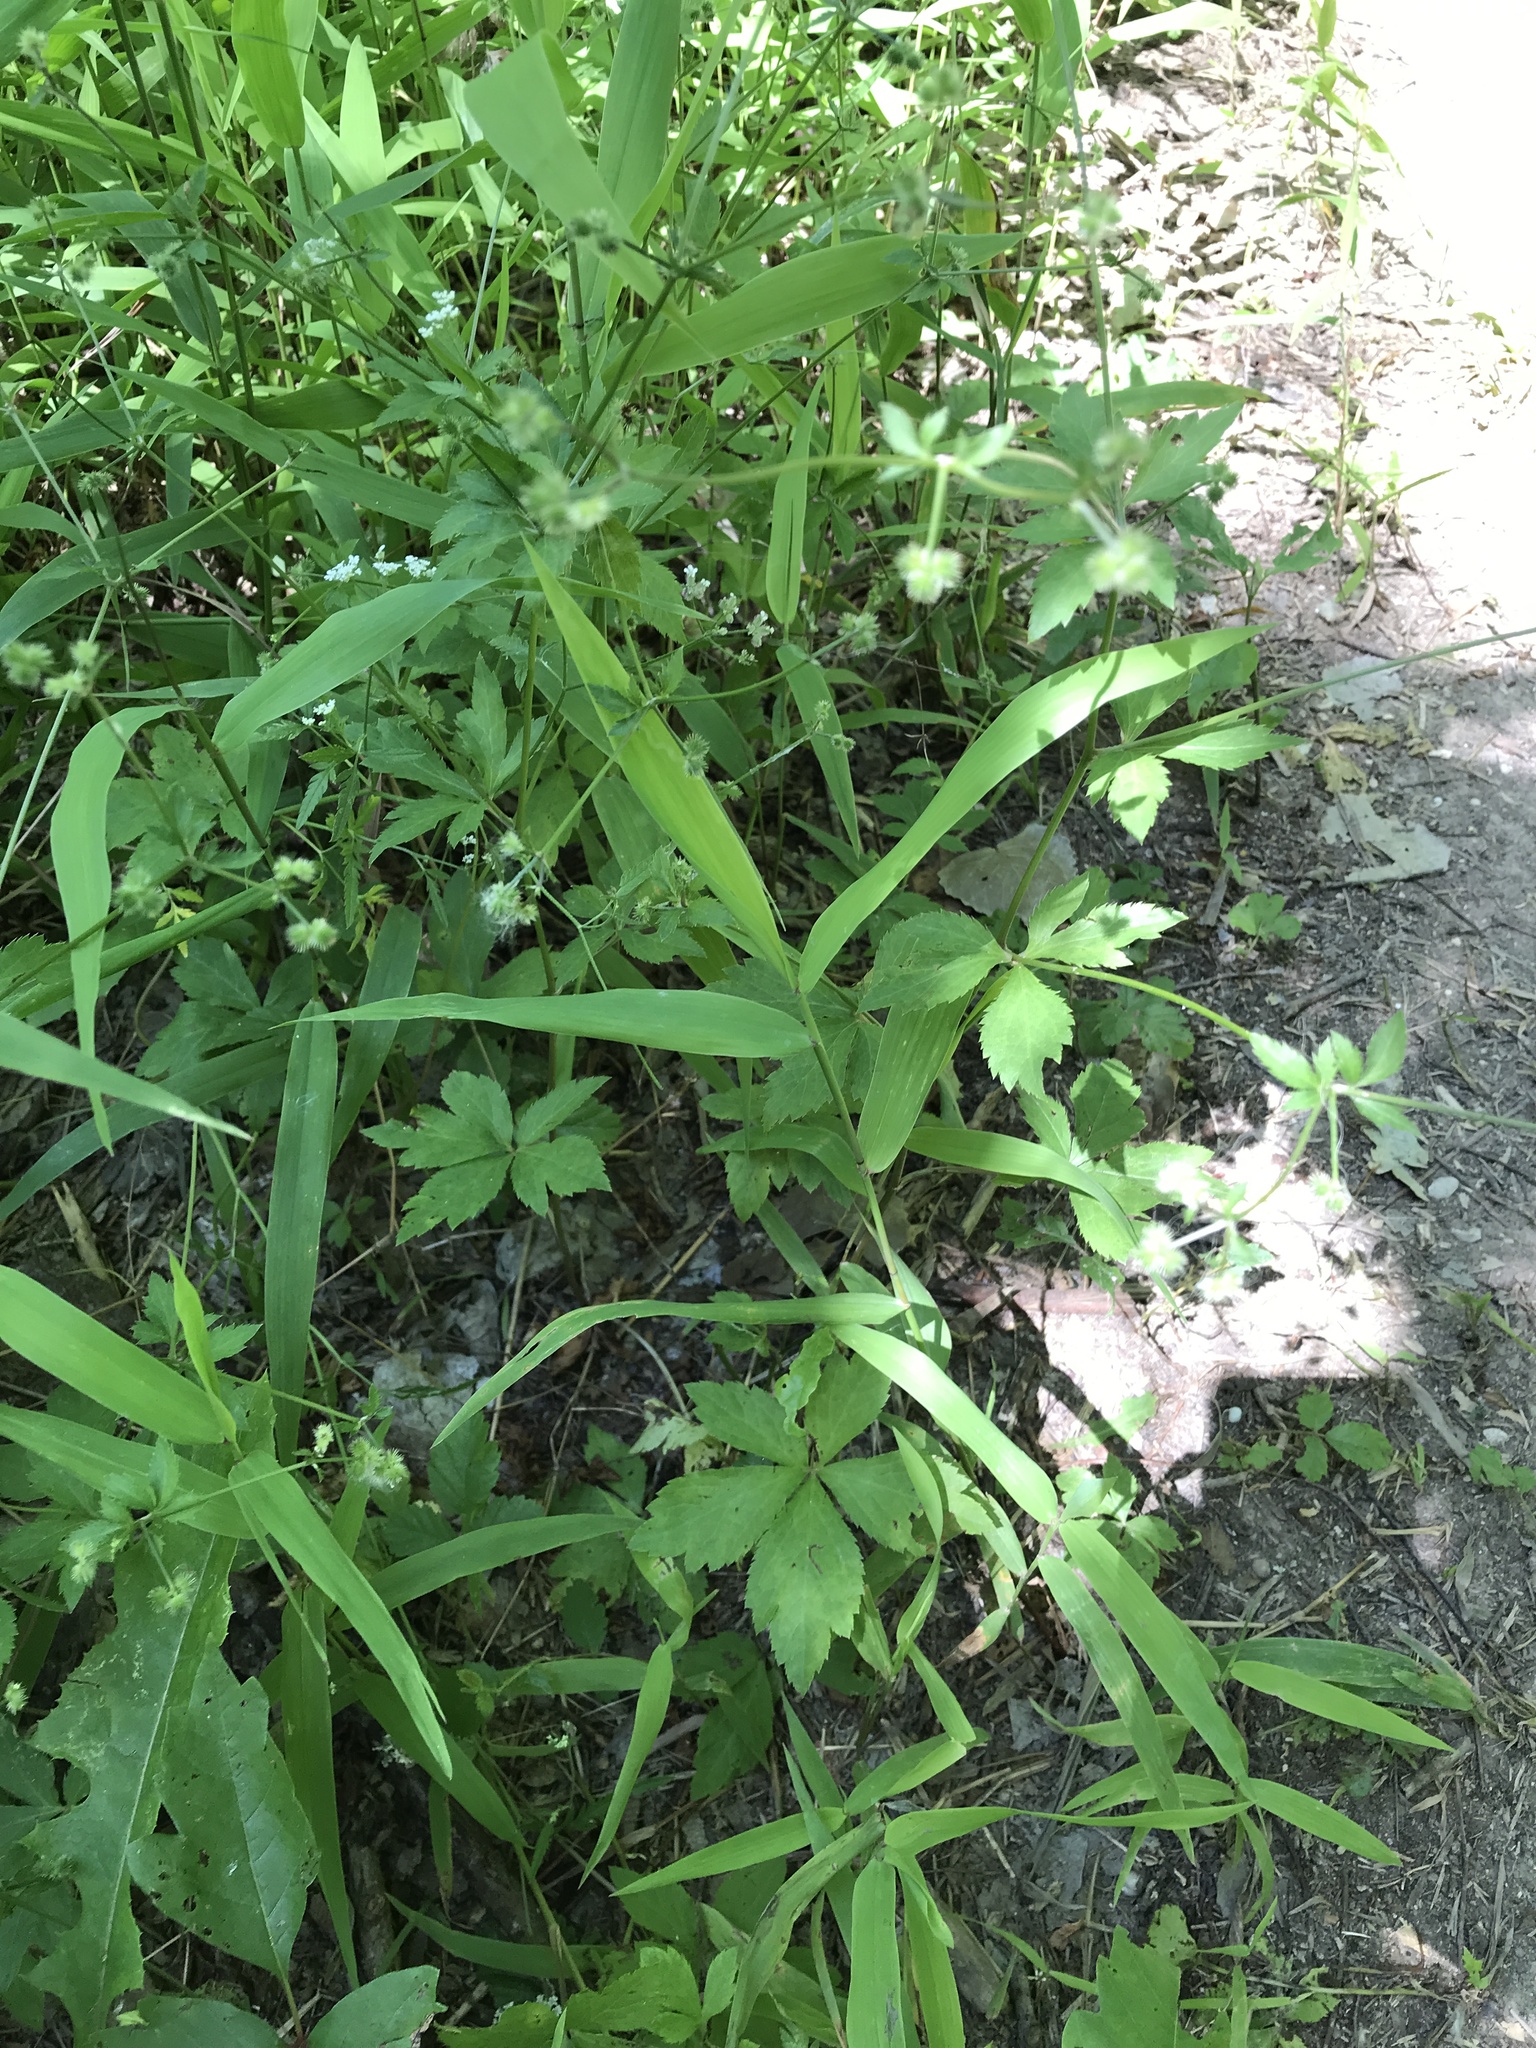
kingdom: Plantae
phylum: Tracheophyta
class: Magnoliopsida
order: Apiales
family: Apiaceae
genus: Sanicula
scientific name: Sanicula canadensis
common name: Canada sanicle
